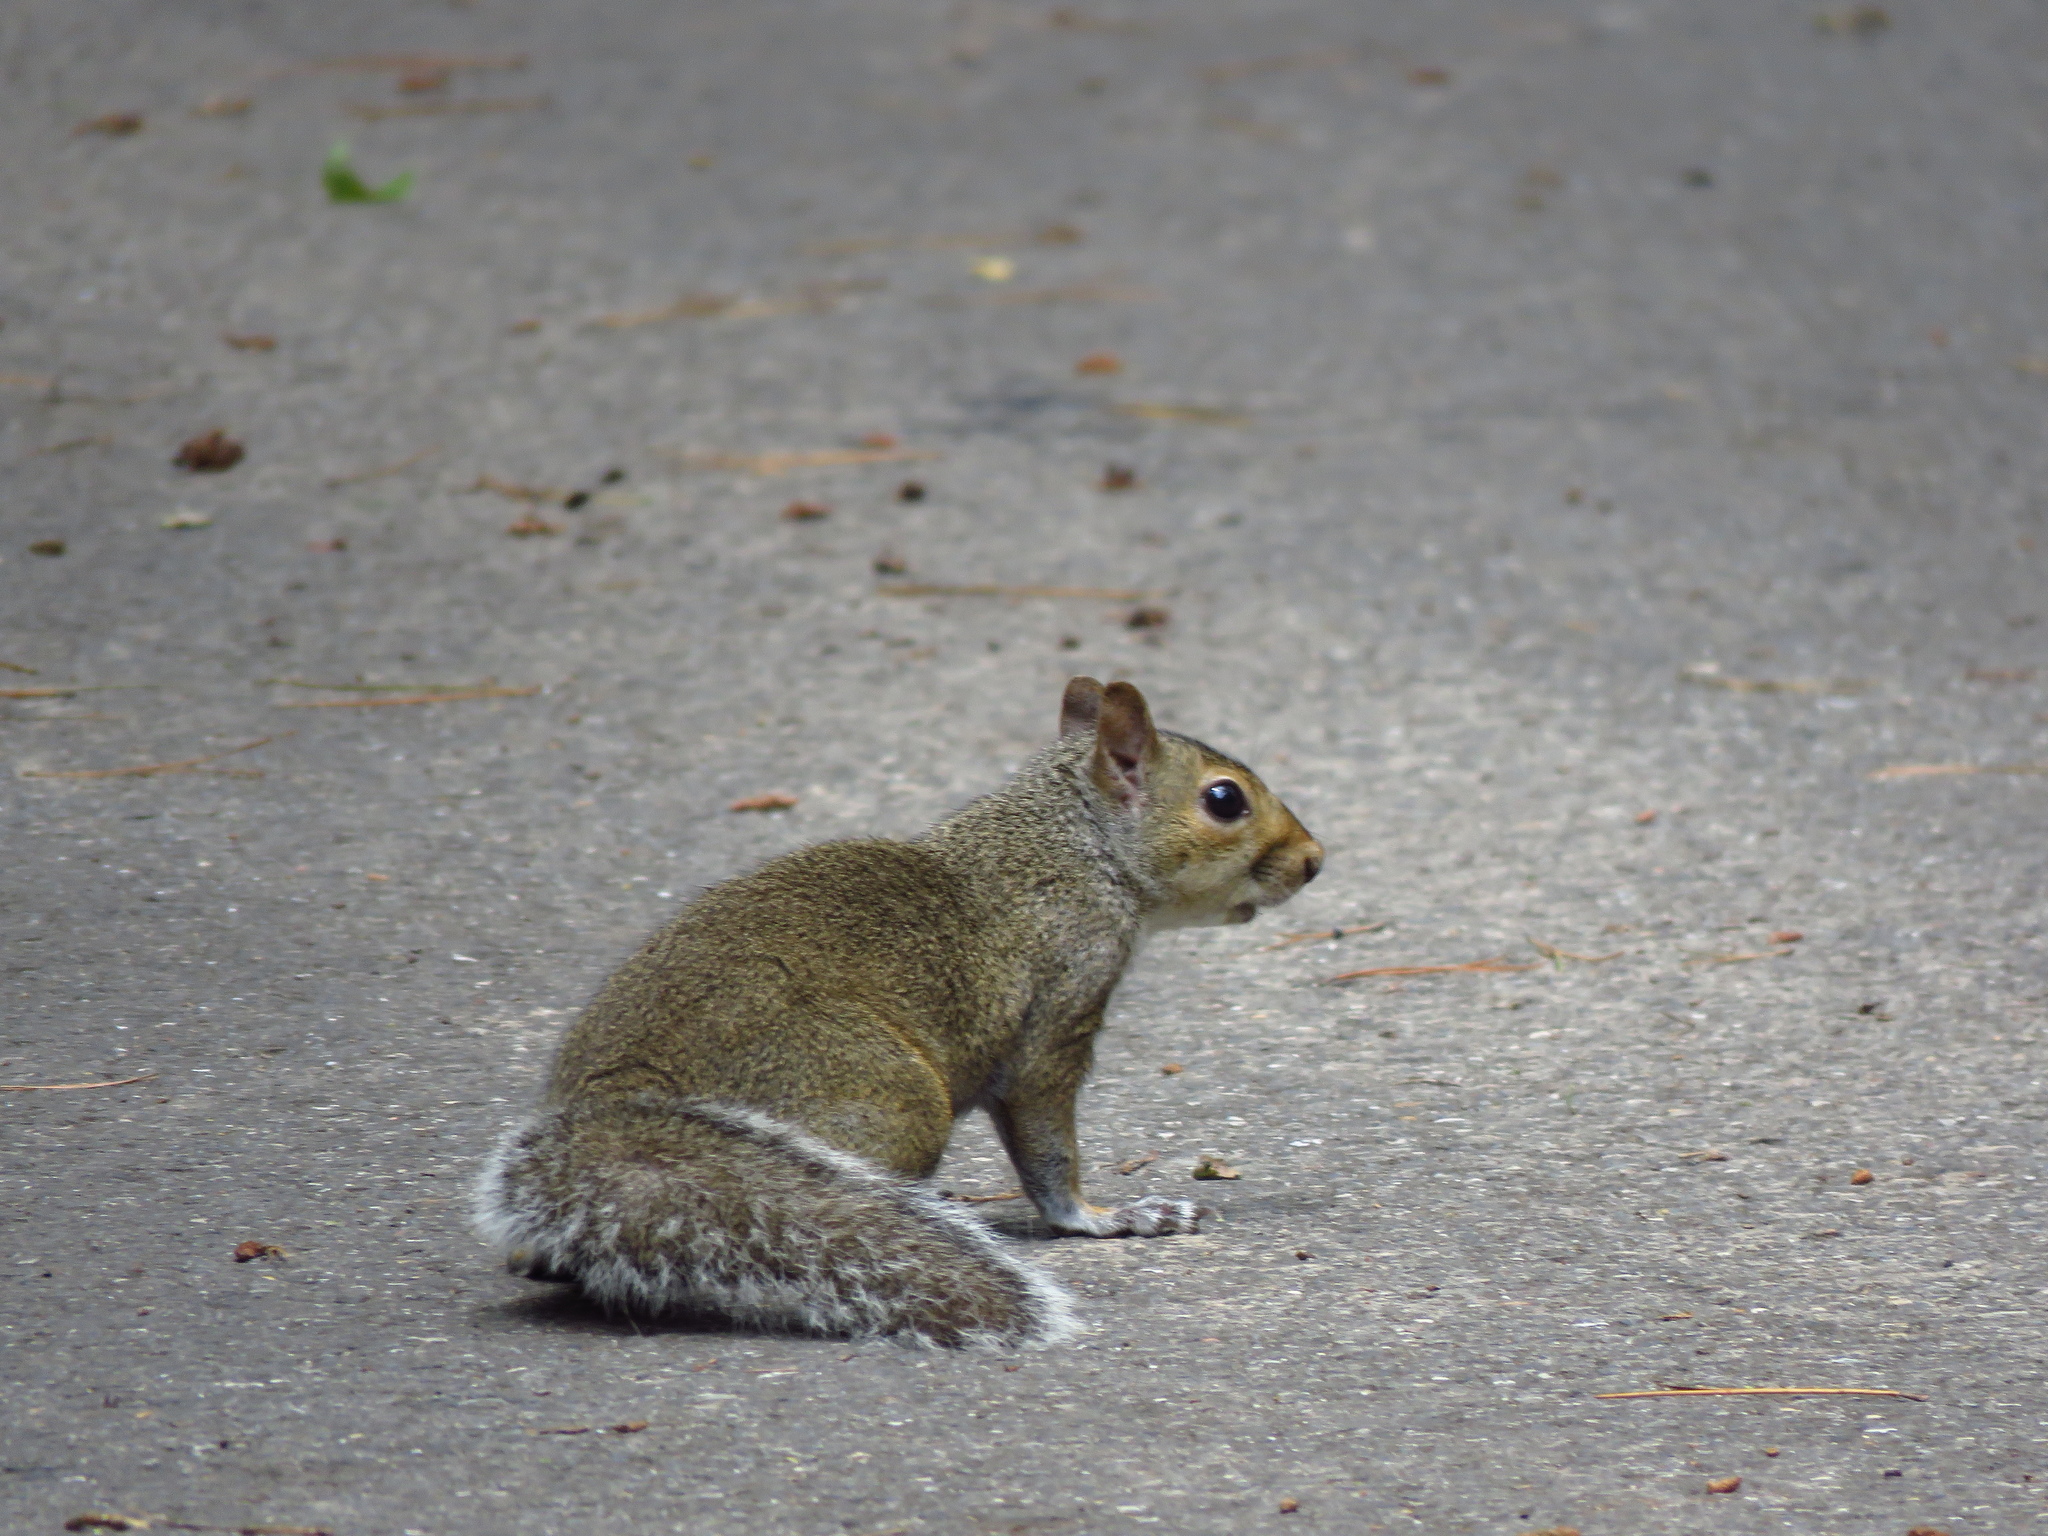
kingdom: Animalia
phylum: Chordata
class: Mammalia
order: Rodentia
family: Sciuridae
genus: Sciurus
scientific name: Sciurus carolinensis
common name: Eastern gray squirrel
